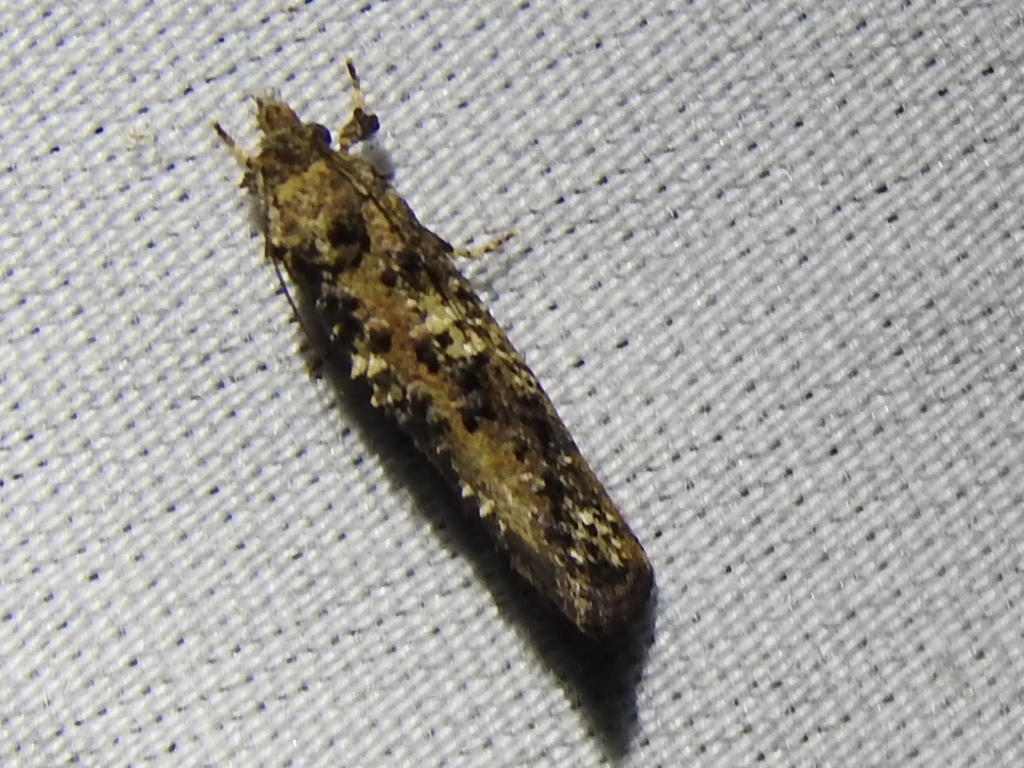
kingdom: Animalia
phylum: Arthropoda
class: Insecta
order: Lepidoptera
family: Tineidae
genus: Acrolophus
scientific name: Acrolophus cressoni
